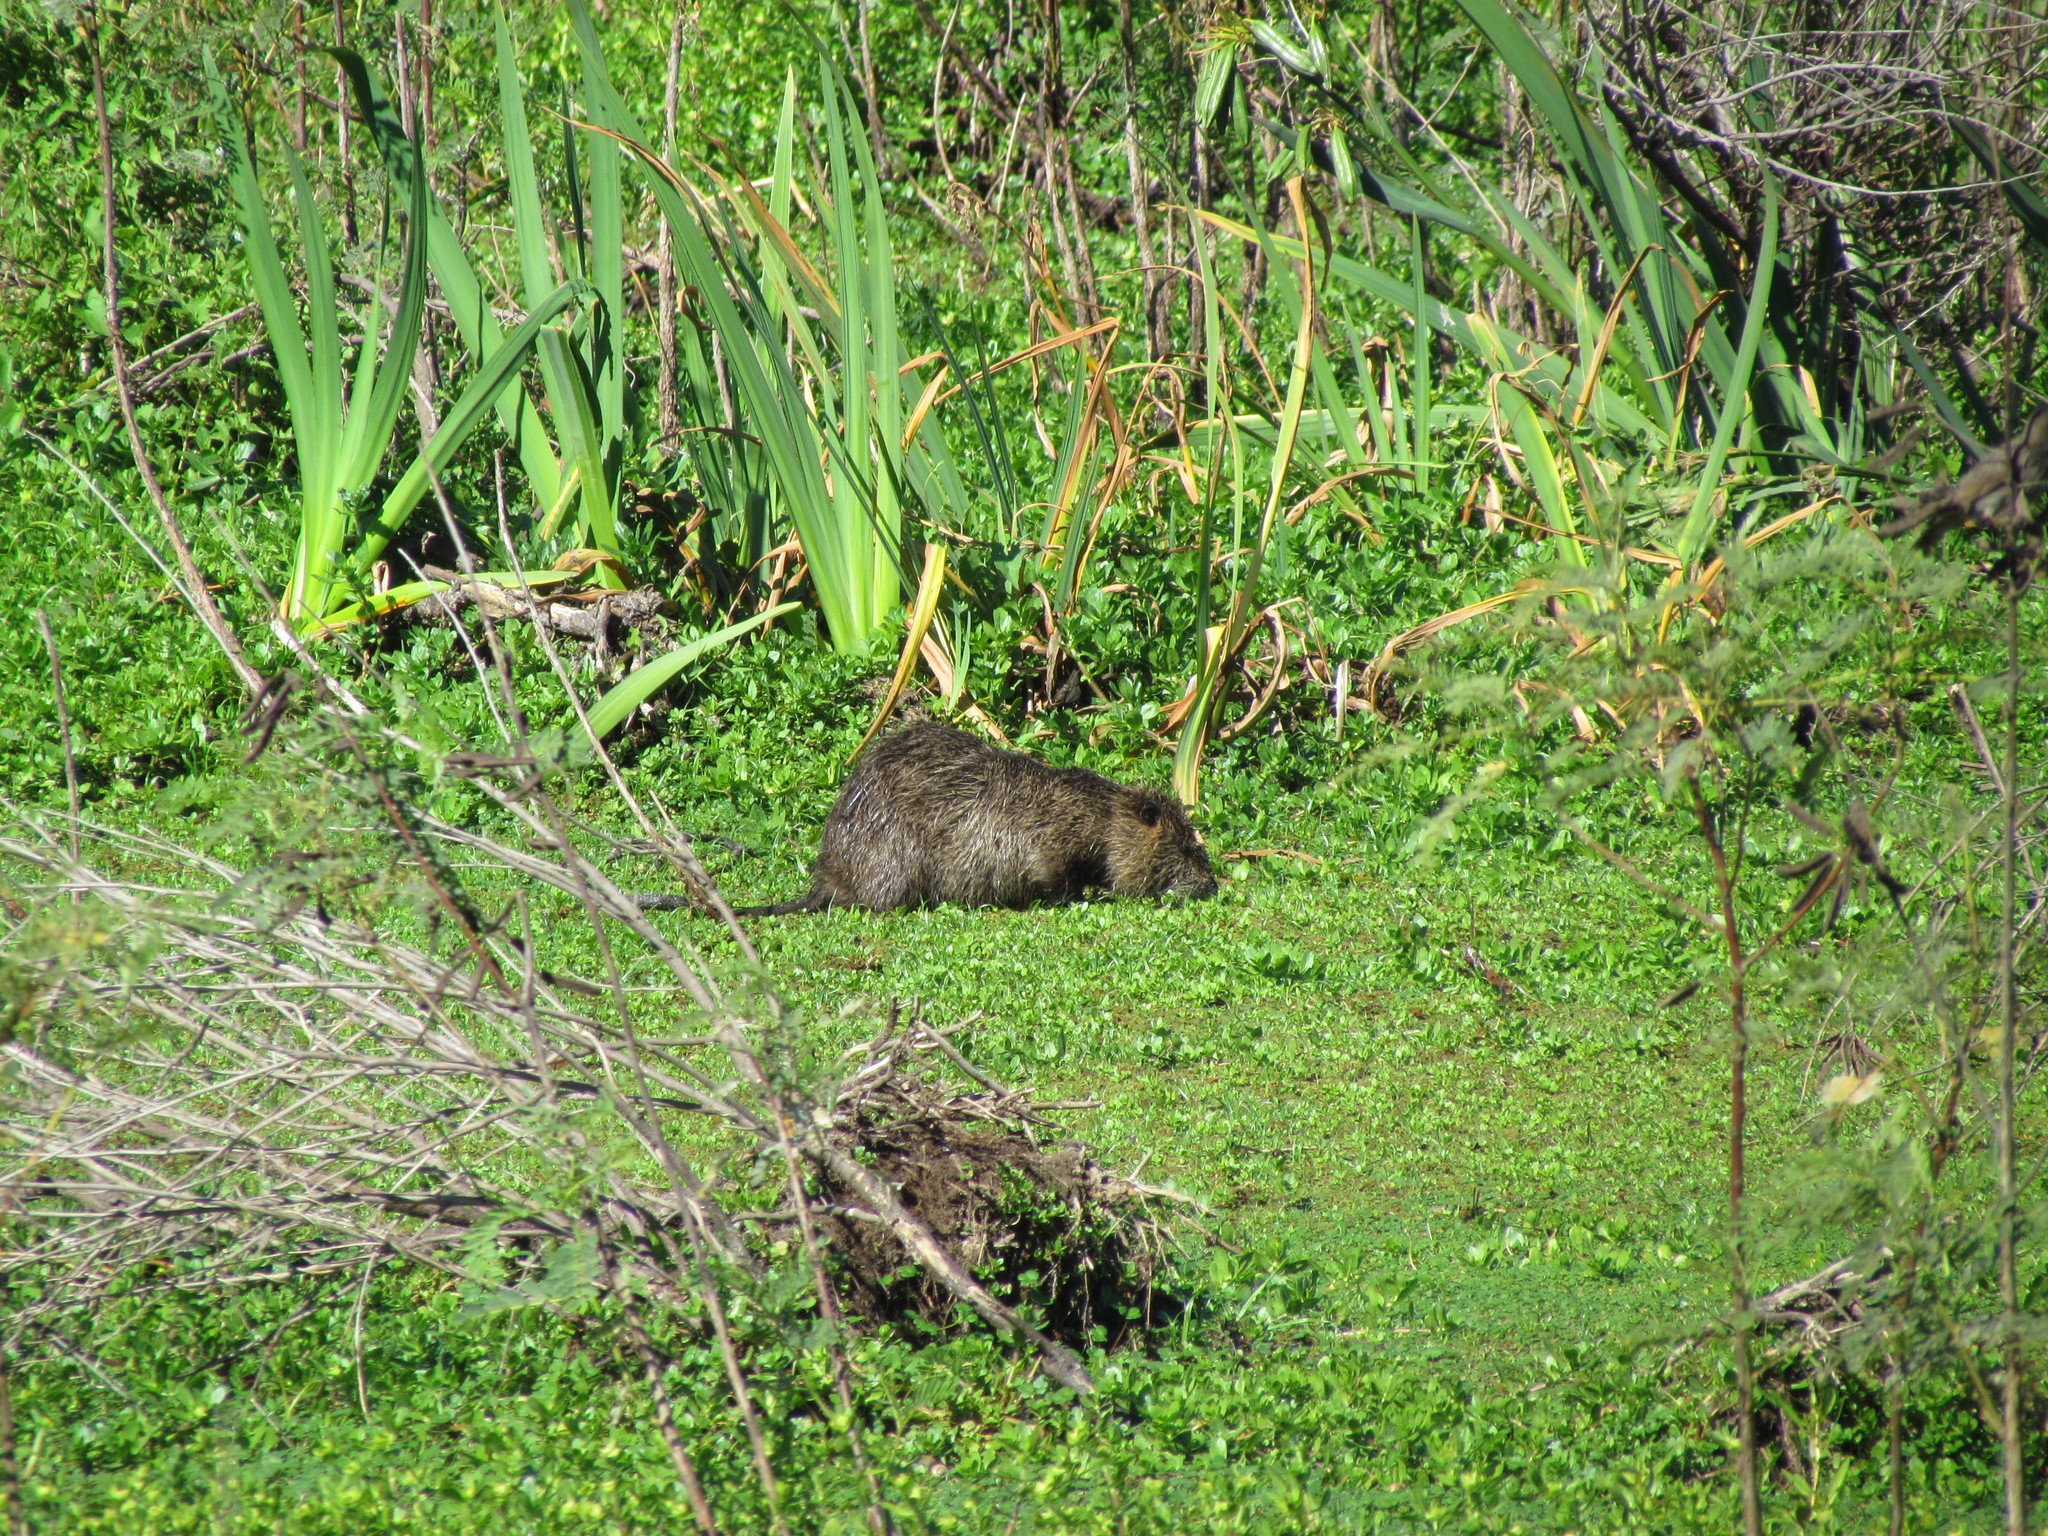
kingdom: Animalia
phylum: Chordata
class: Mammalia
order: Rodentia
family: Myocastoridae
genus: Myocastor
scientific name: Myocastor coypus
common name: Coypu
